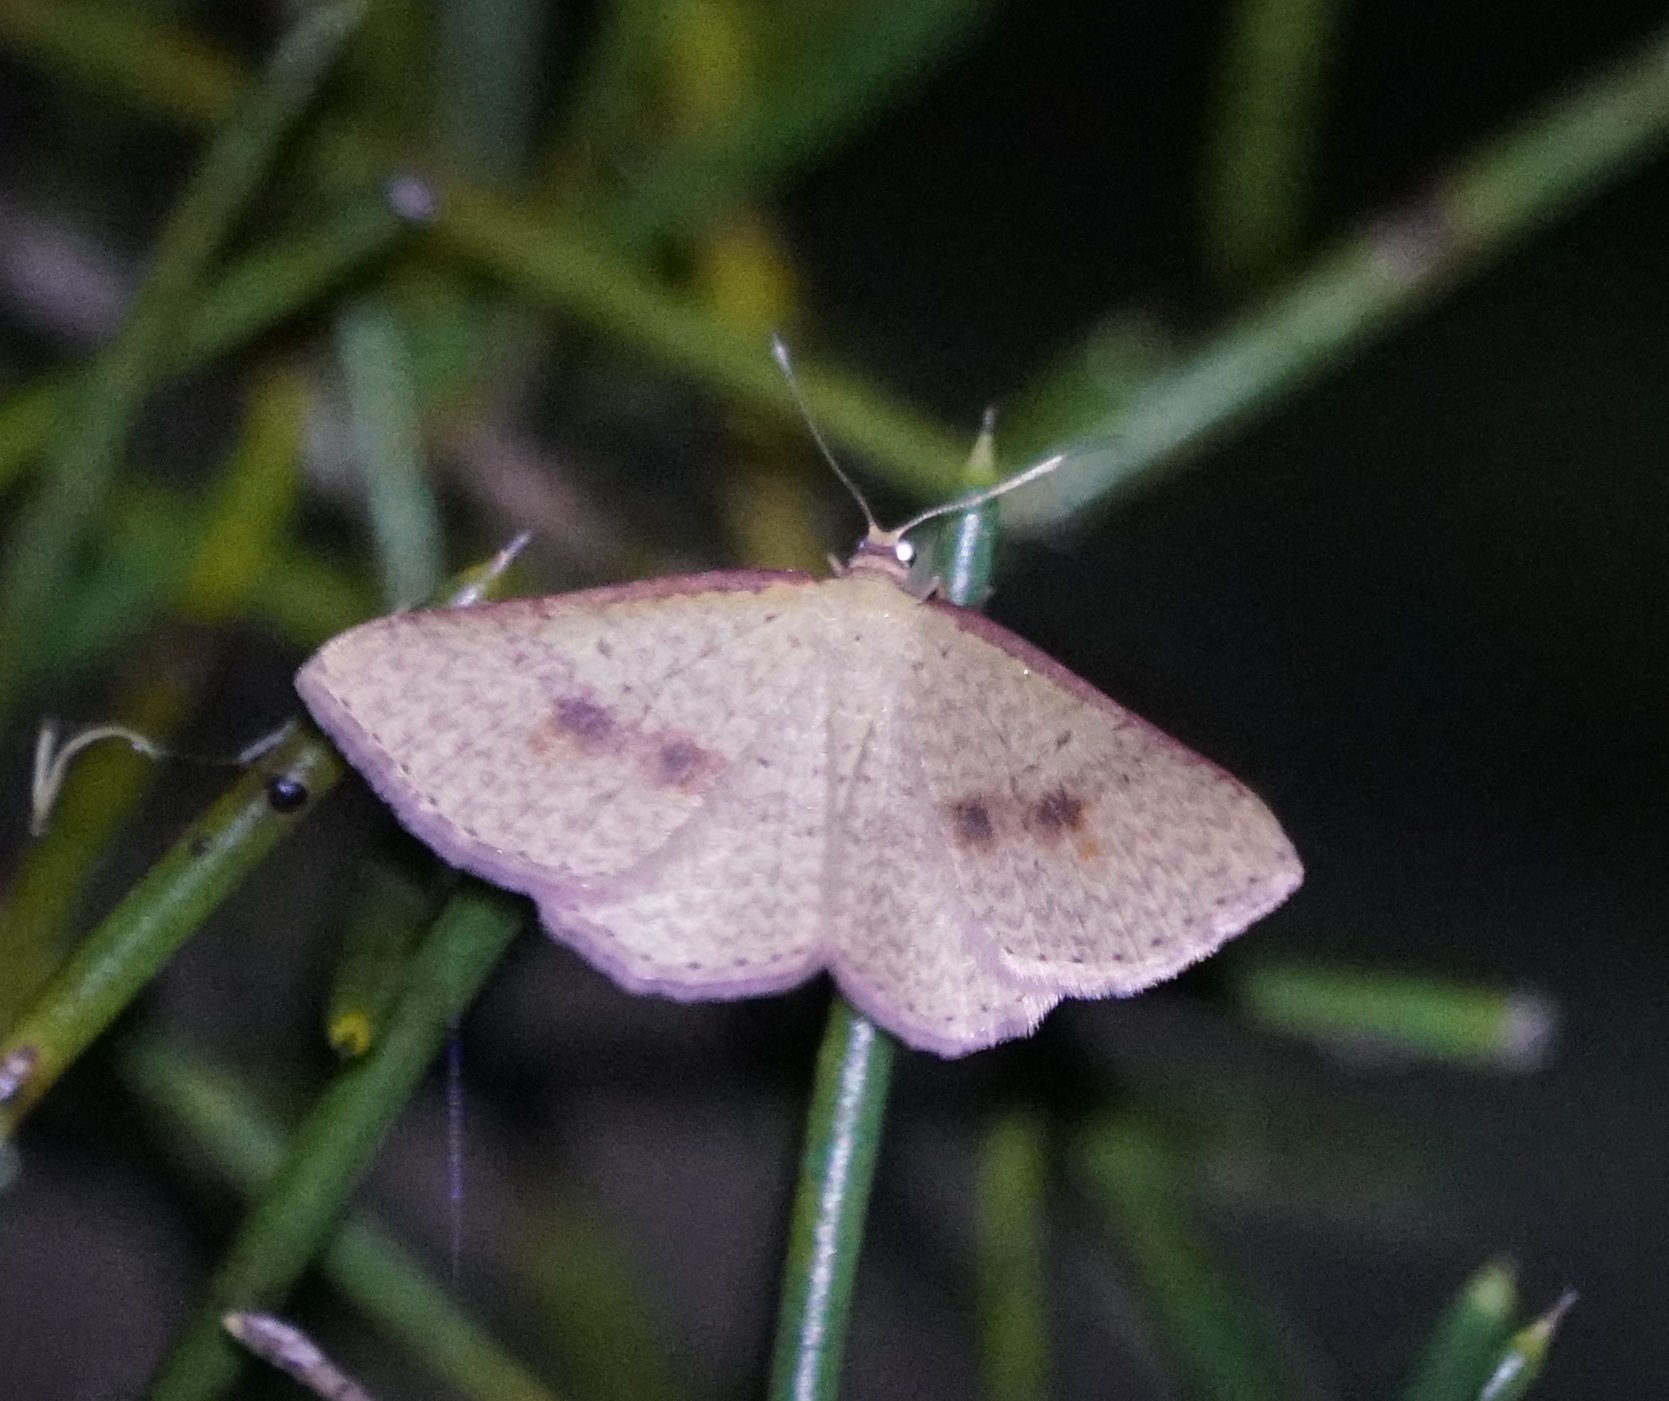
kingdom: Animalia
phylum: Arthropoda
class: Insecta
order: Lepidoptera
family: Geometridae
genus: Epicyme
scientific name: Epicyme rubropunctaria
